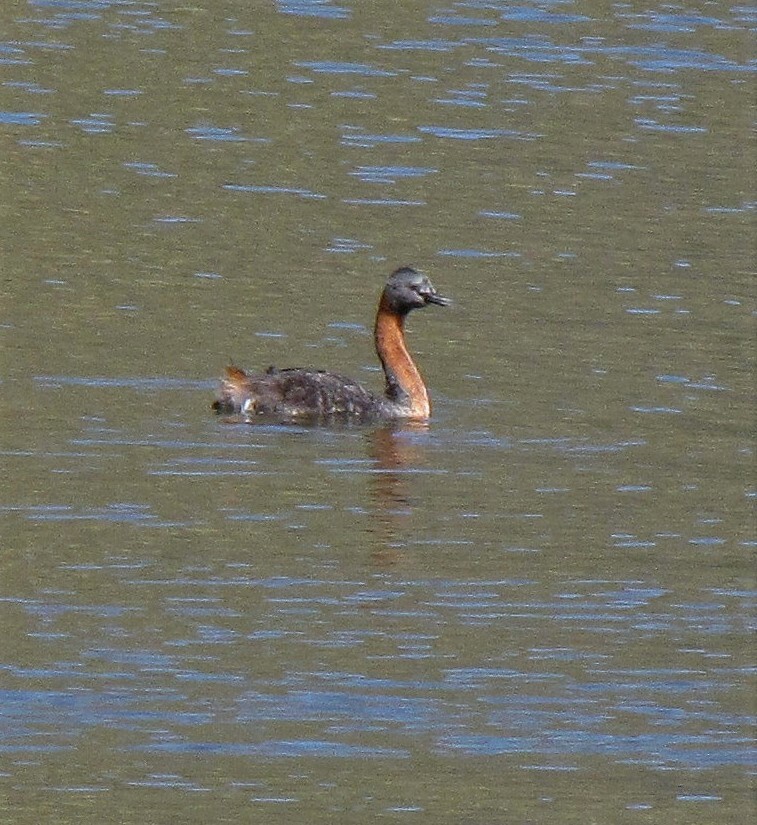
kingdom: Animalia
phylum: Chordata
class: Aves
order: Podicipediformes
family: Podicipedidae
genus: Podiceps
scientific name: Podiceps major
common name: Great grebe
